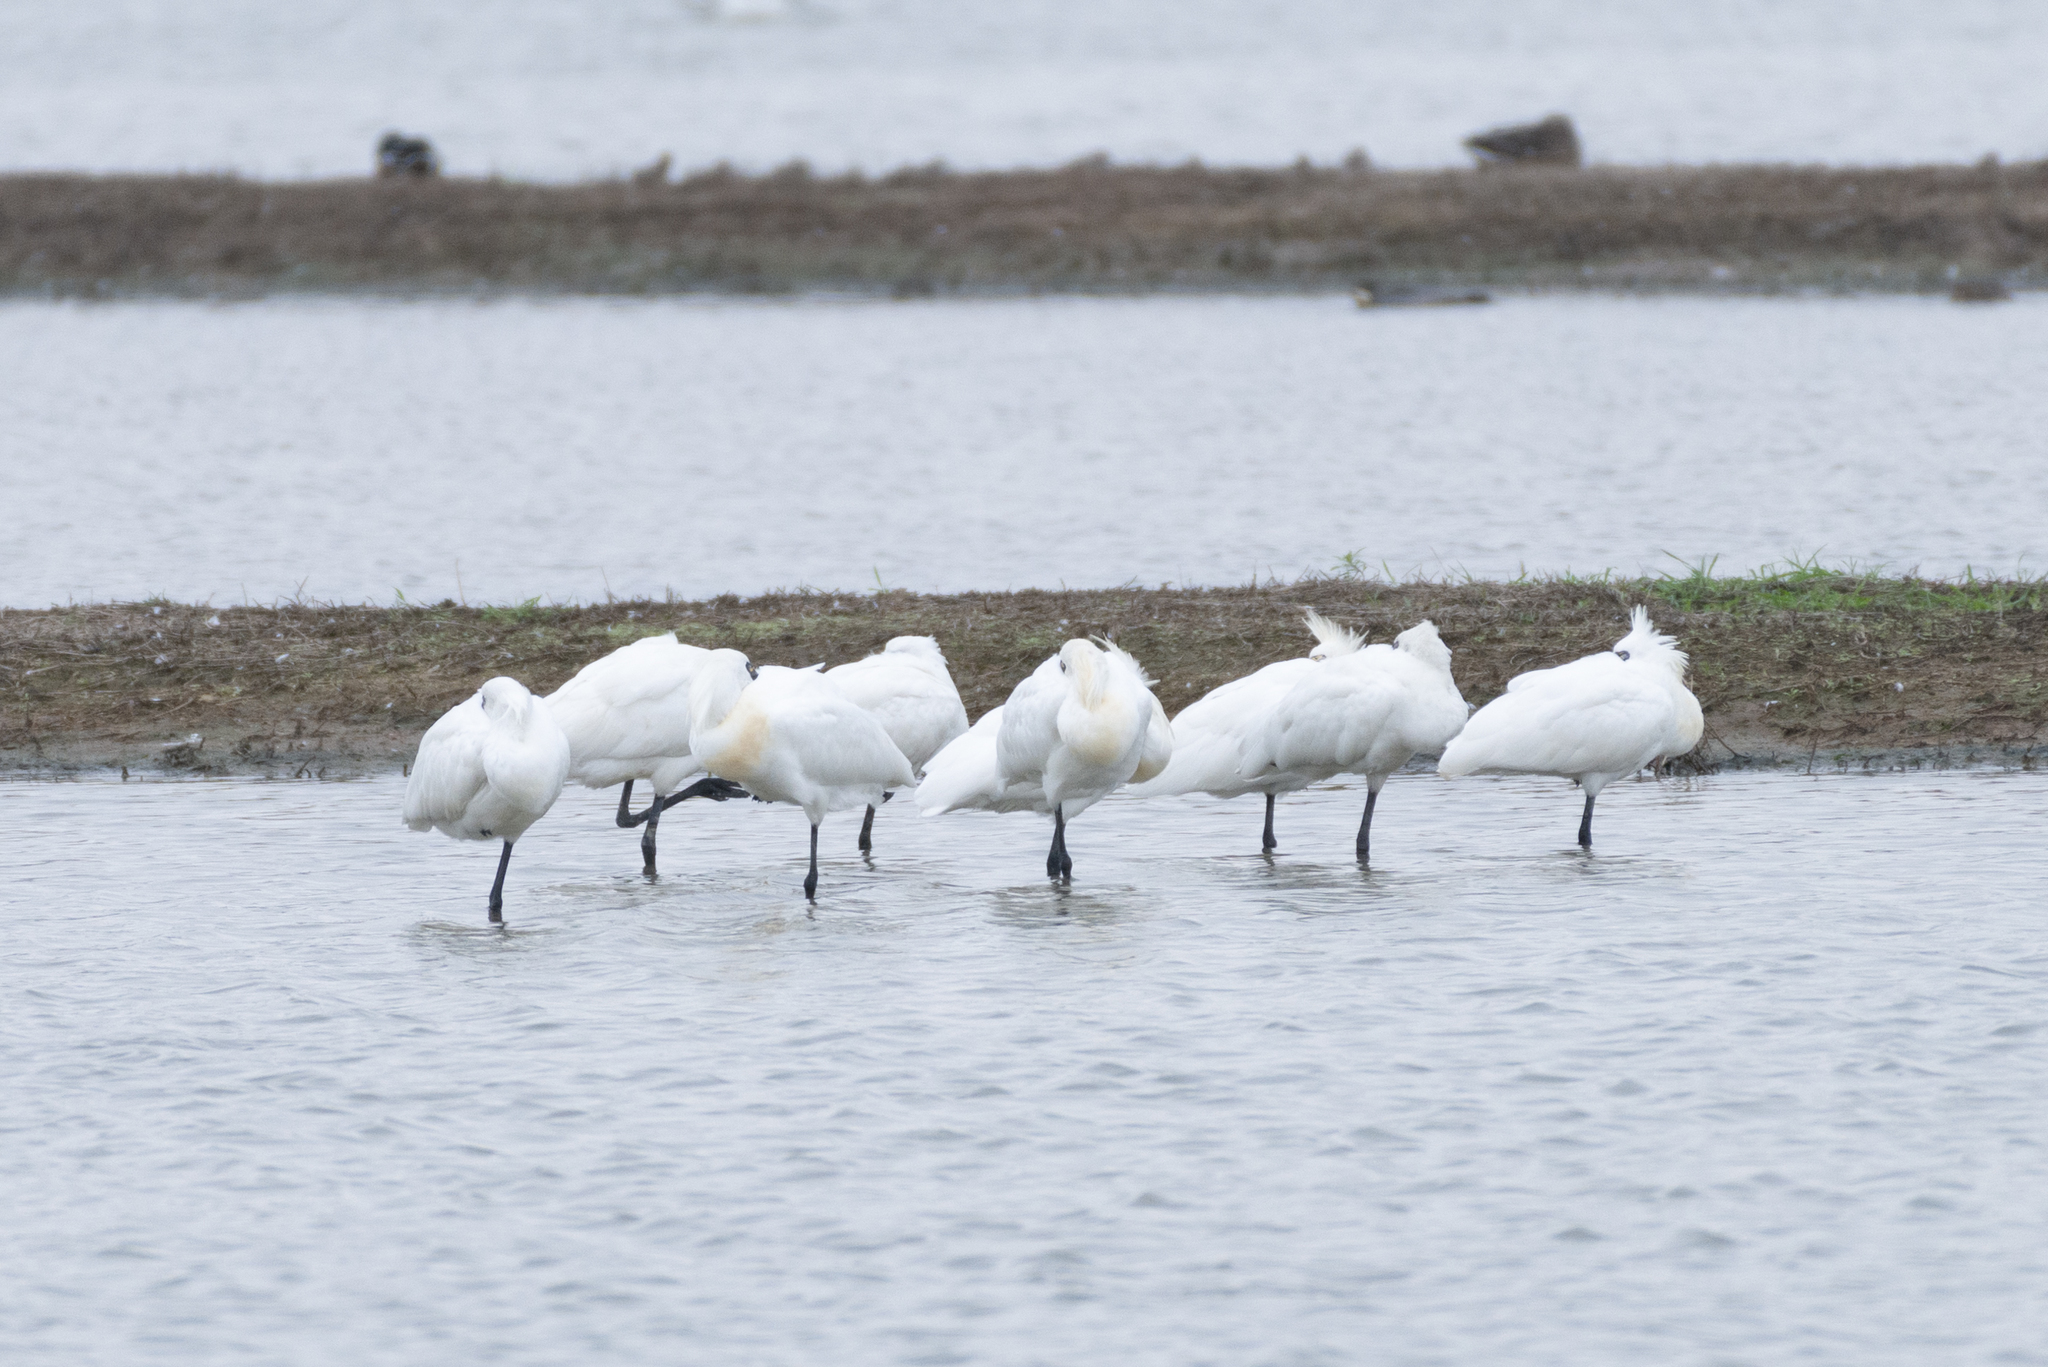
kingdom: Animalia
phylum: Chordata
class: Aves
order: Pelecaniformes
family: Threskiornithidae
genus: Platalea
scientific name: Platalea minor
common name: Black-faced spoonbill
